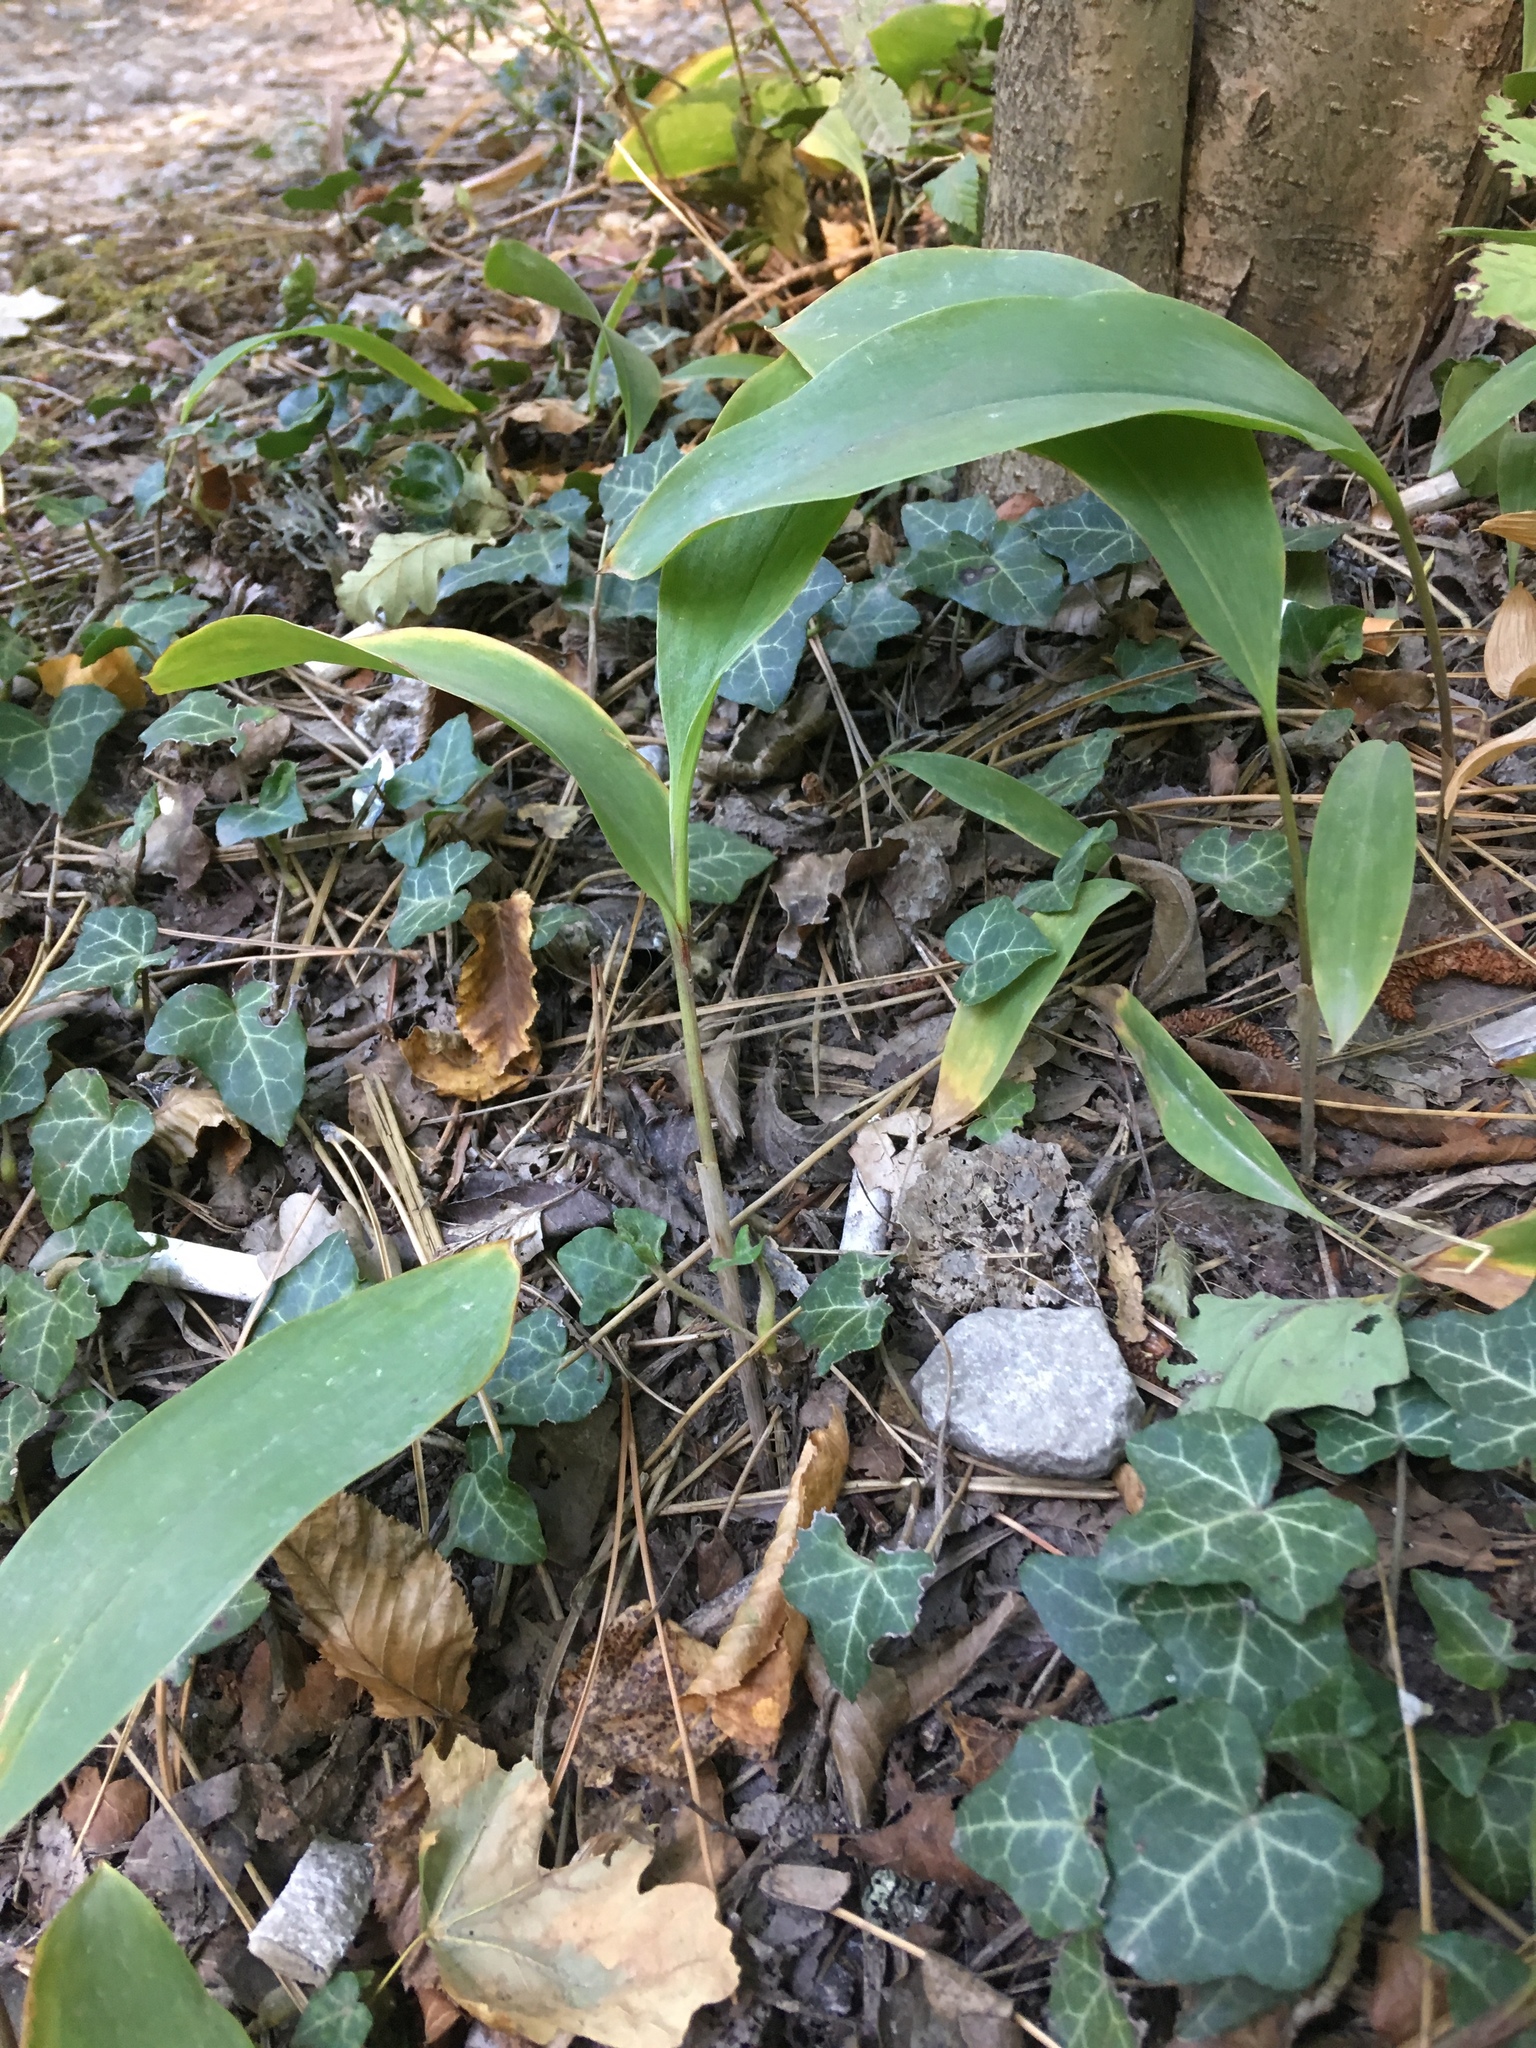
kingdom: Plantae
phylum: Tracheophyta
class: Liliopsida
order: Asparagales
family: Asparagaceae
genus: Convallaria
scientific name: Convallaria majalis
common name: Lily-of-the-valley
